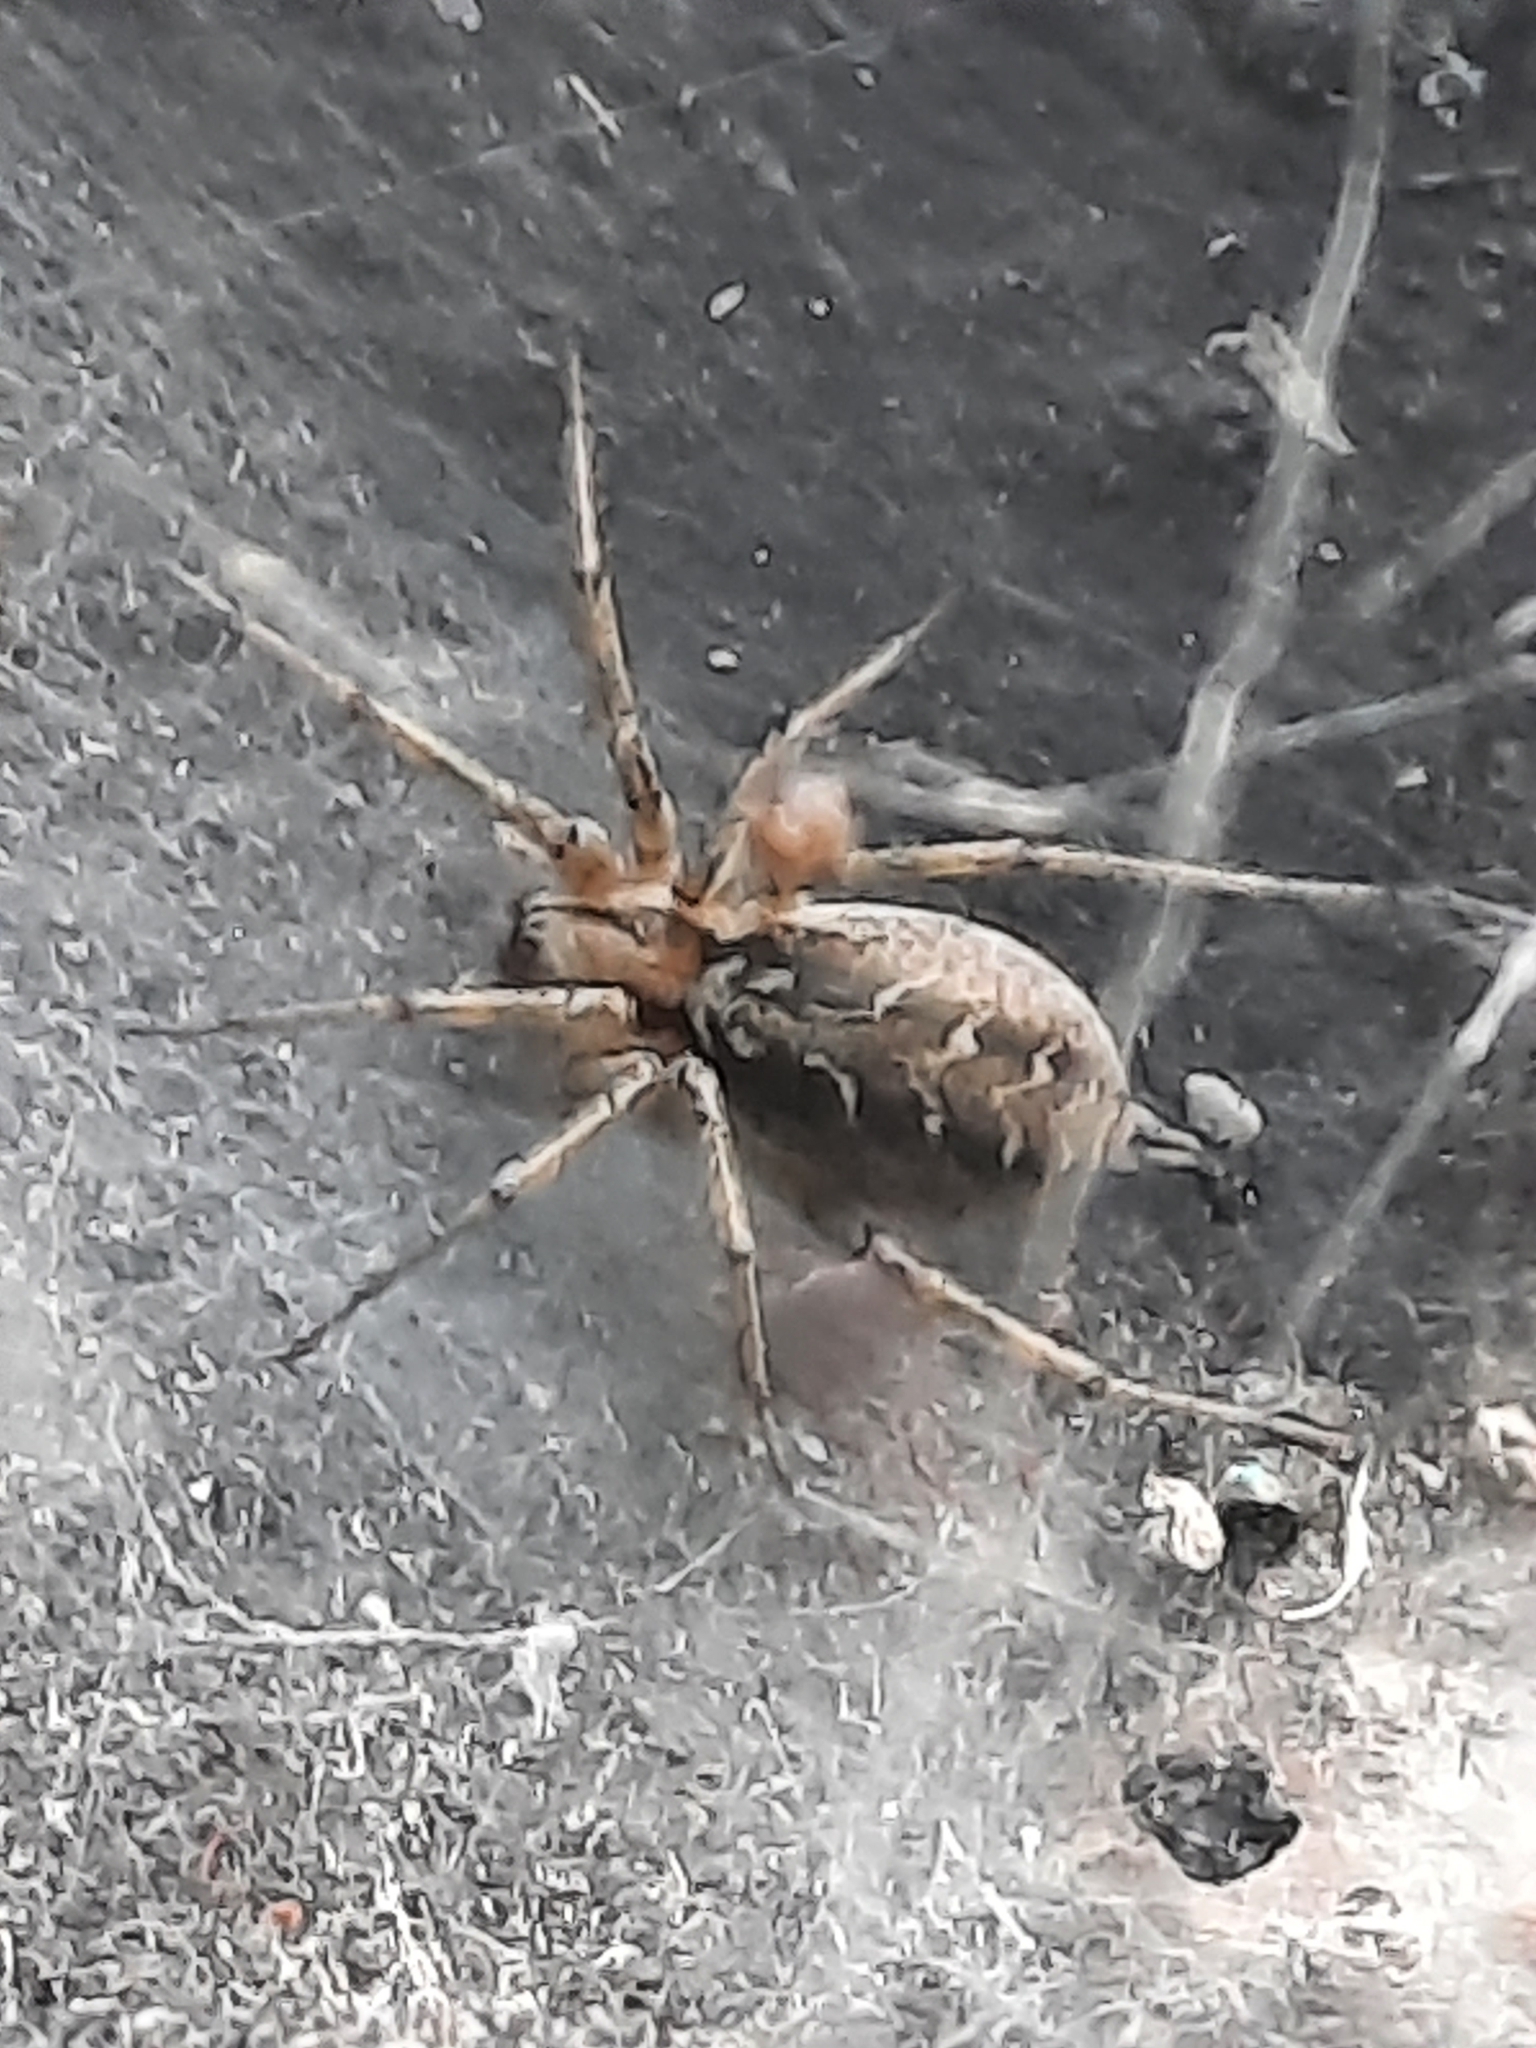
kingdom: Animalia
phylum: Arthropoda
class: Arachnida
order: Araneae
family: Agelenidae
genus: Agelena
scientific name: Agelena labyrinthica
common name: Labyrinth spider
